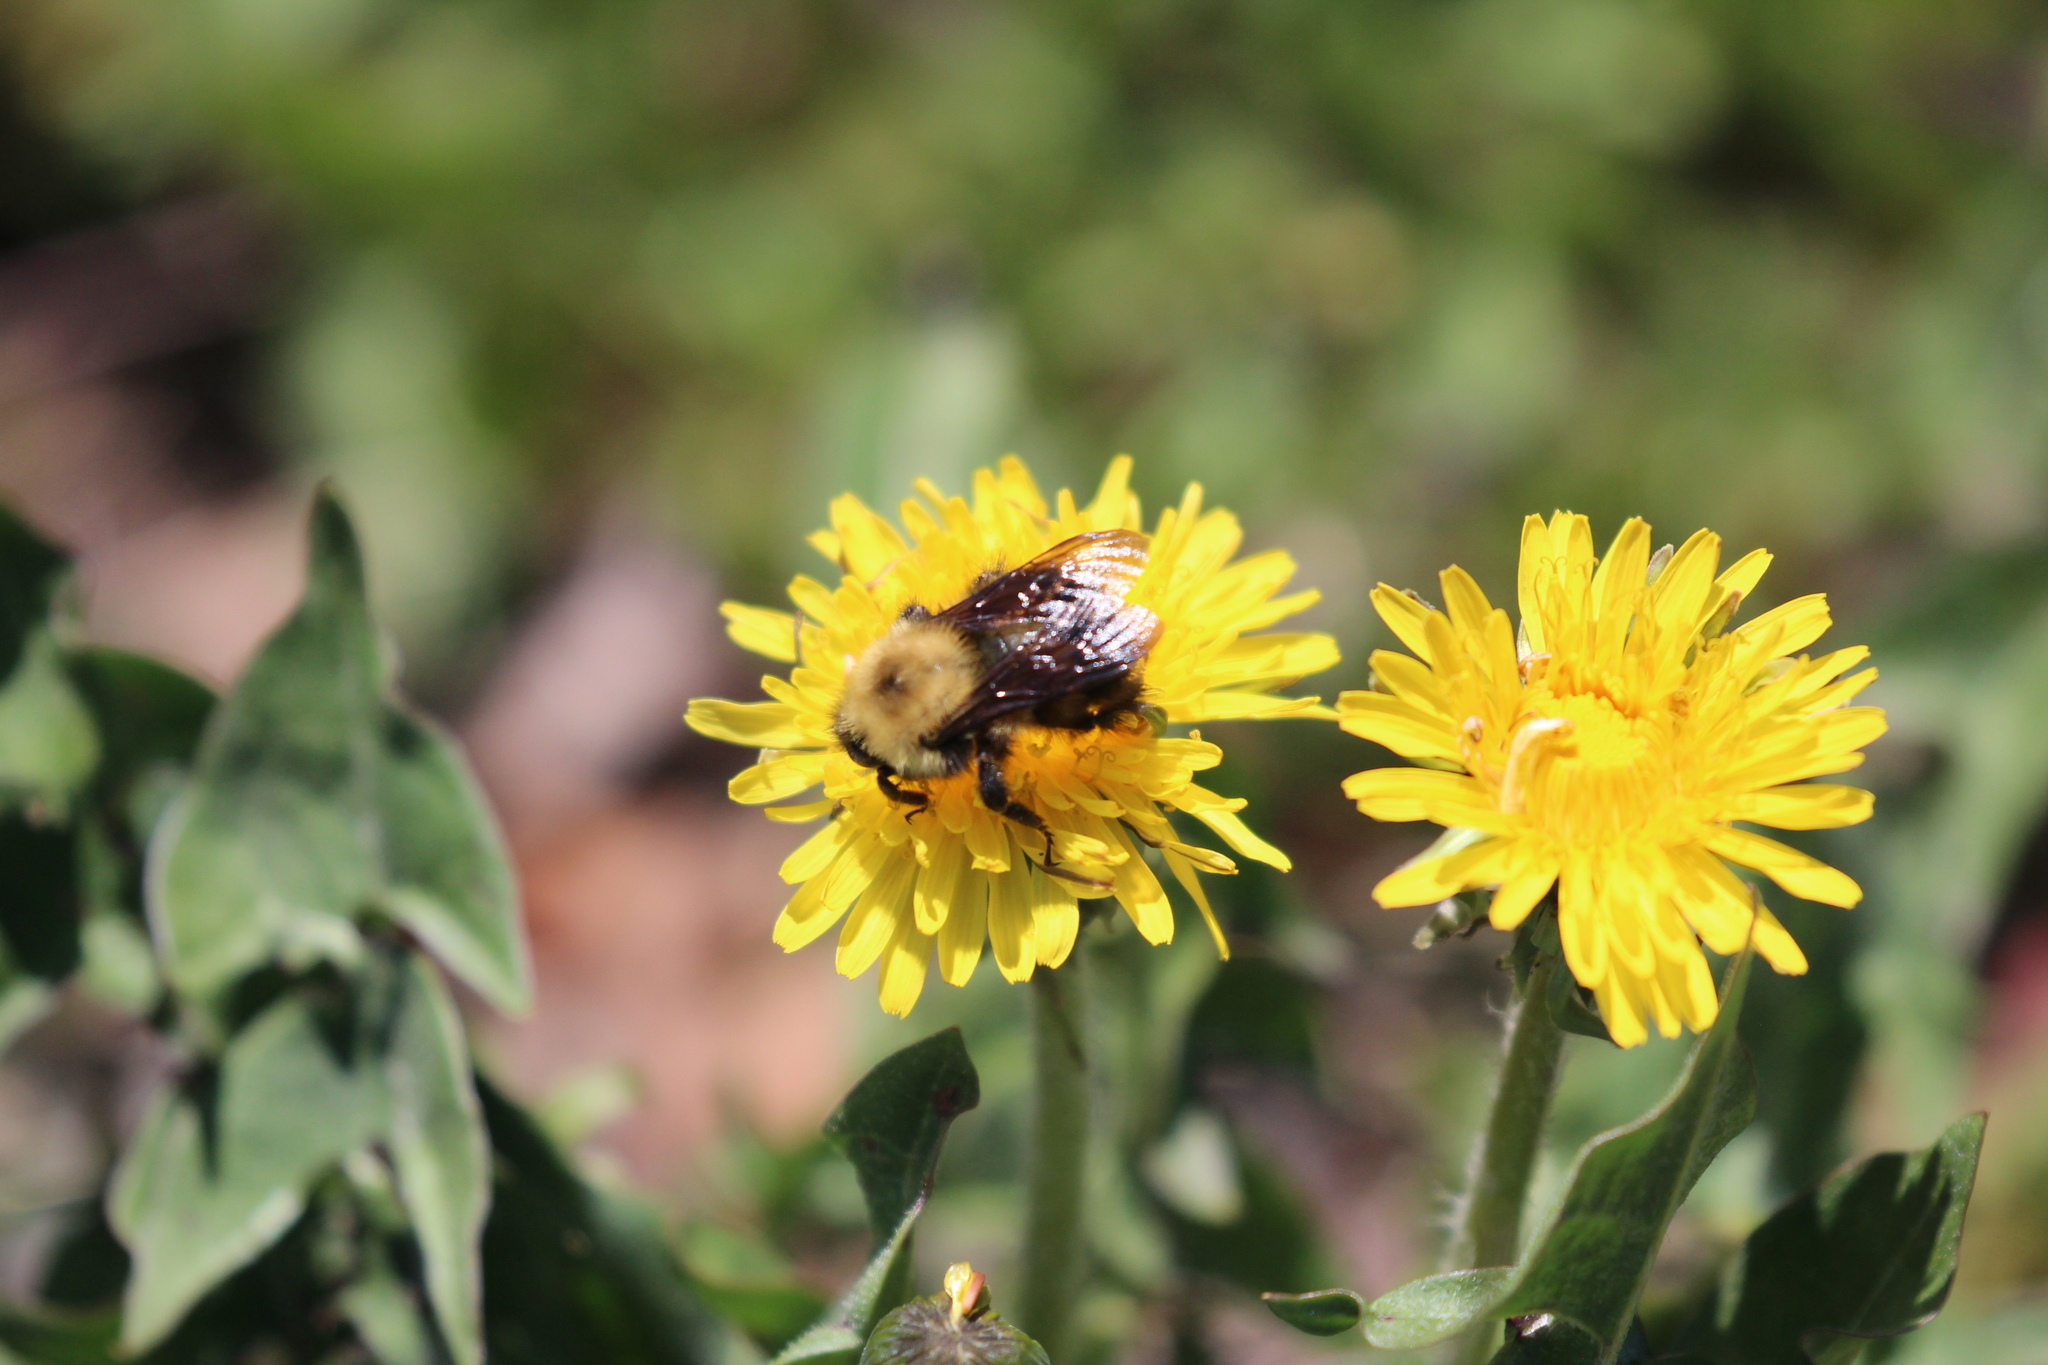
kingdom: Animalia
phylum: Arthropoda
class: Insecta
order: Hymenoptera
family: Apidae
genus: Bombus
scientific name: Bombus perplexus
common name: Confusing bumble bee
